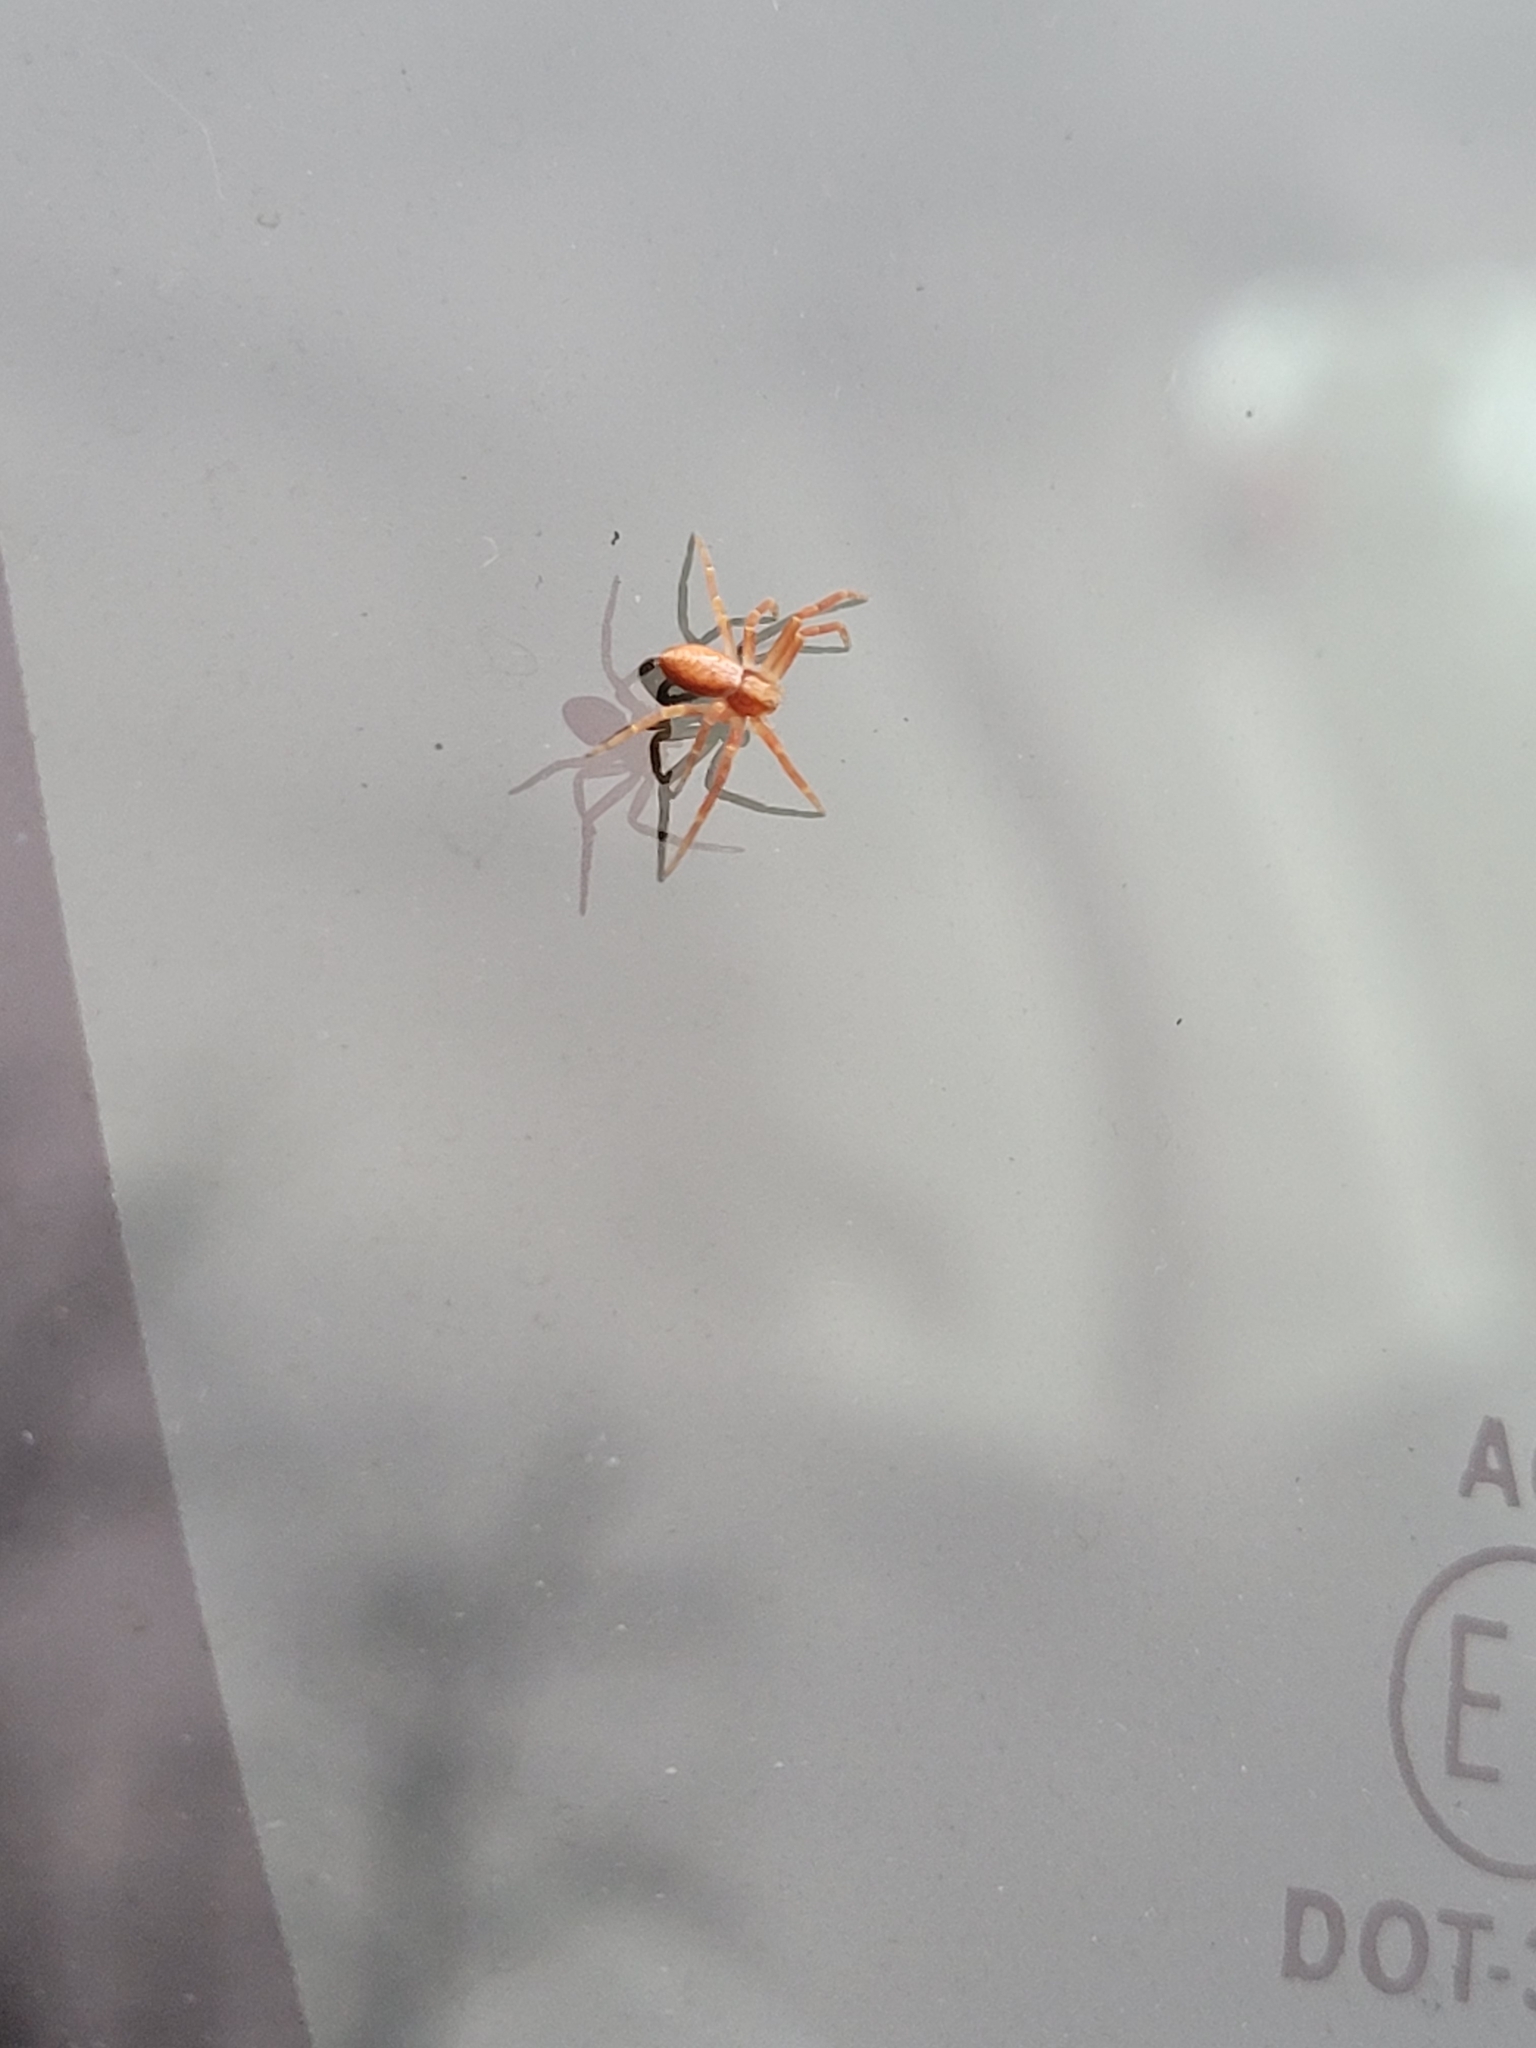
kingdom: Animalia
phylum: Arthropoda
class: Arachnida
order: Araneae
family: Philodromidae
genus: Philodromus
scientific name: Philodromus rufus
